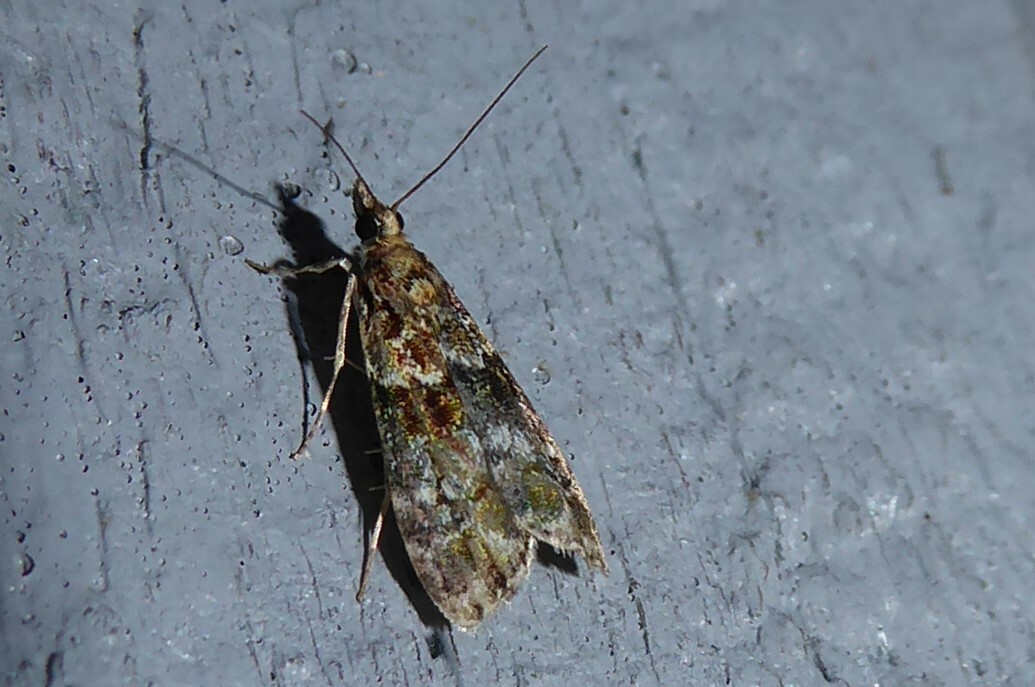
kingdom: Animalia
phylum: Arthropoda
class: Insecta
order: Lepidoptera
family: Crambidae
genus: Eudonia
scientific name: Eudonia minualis
